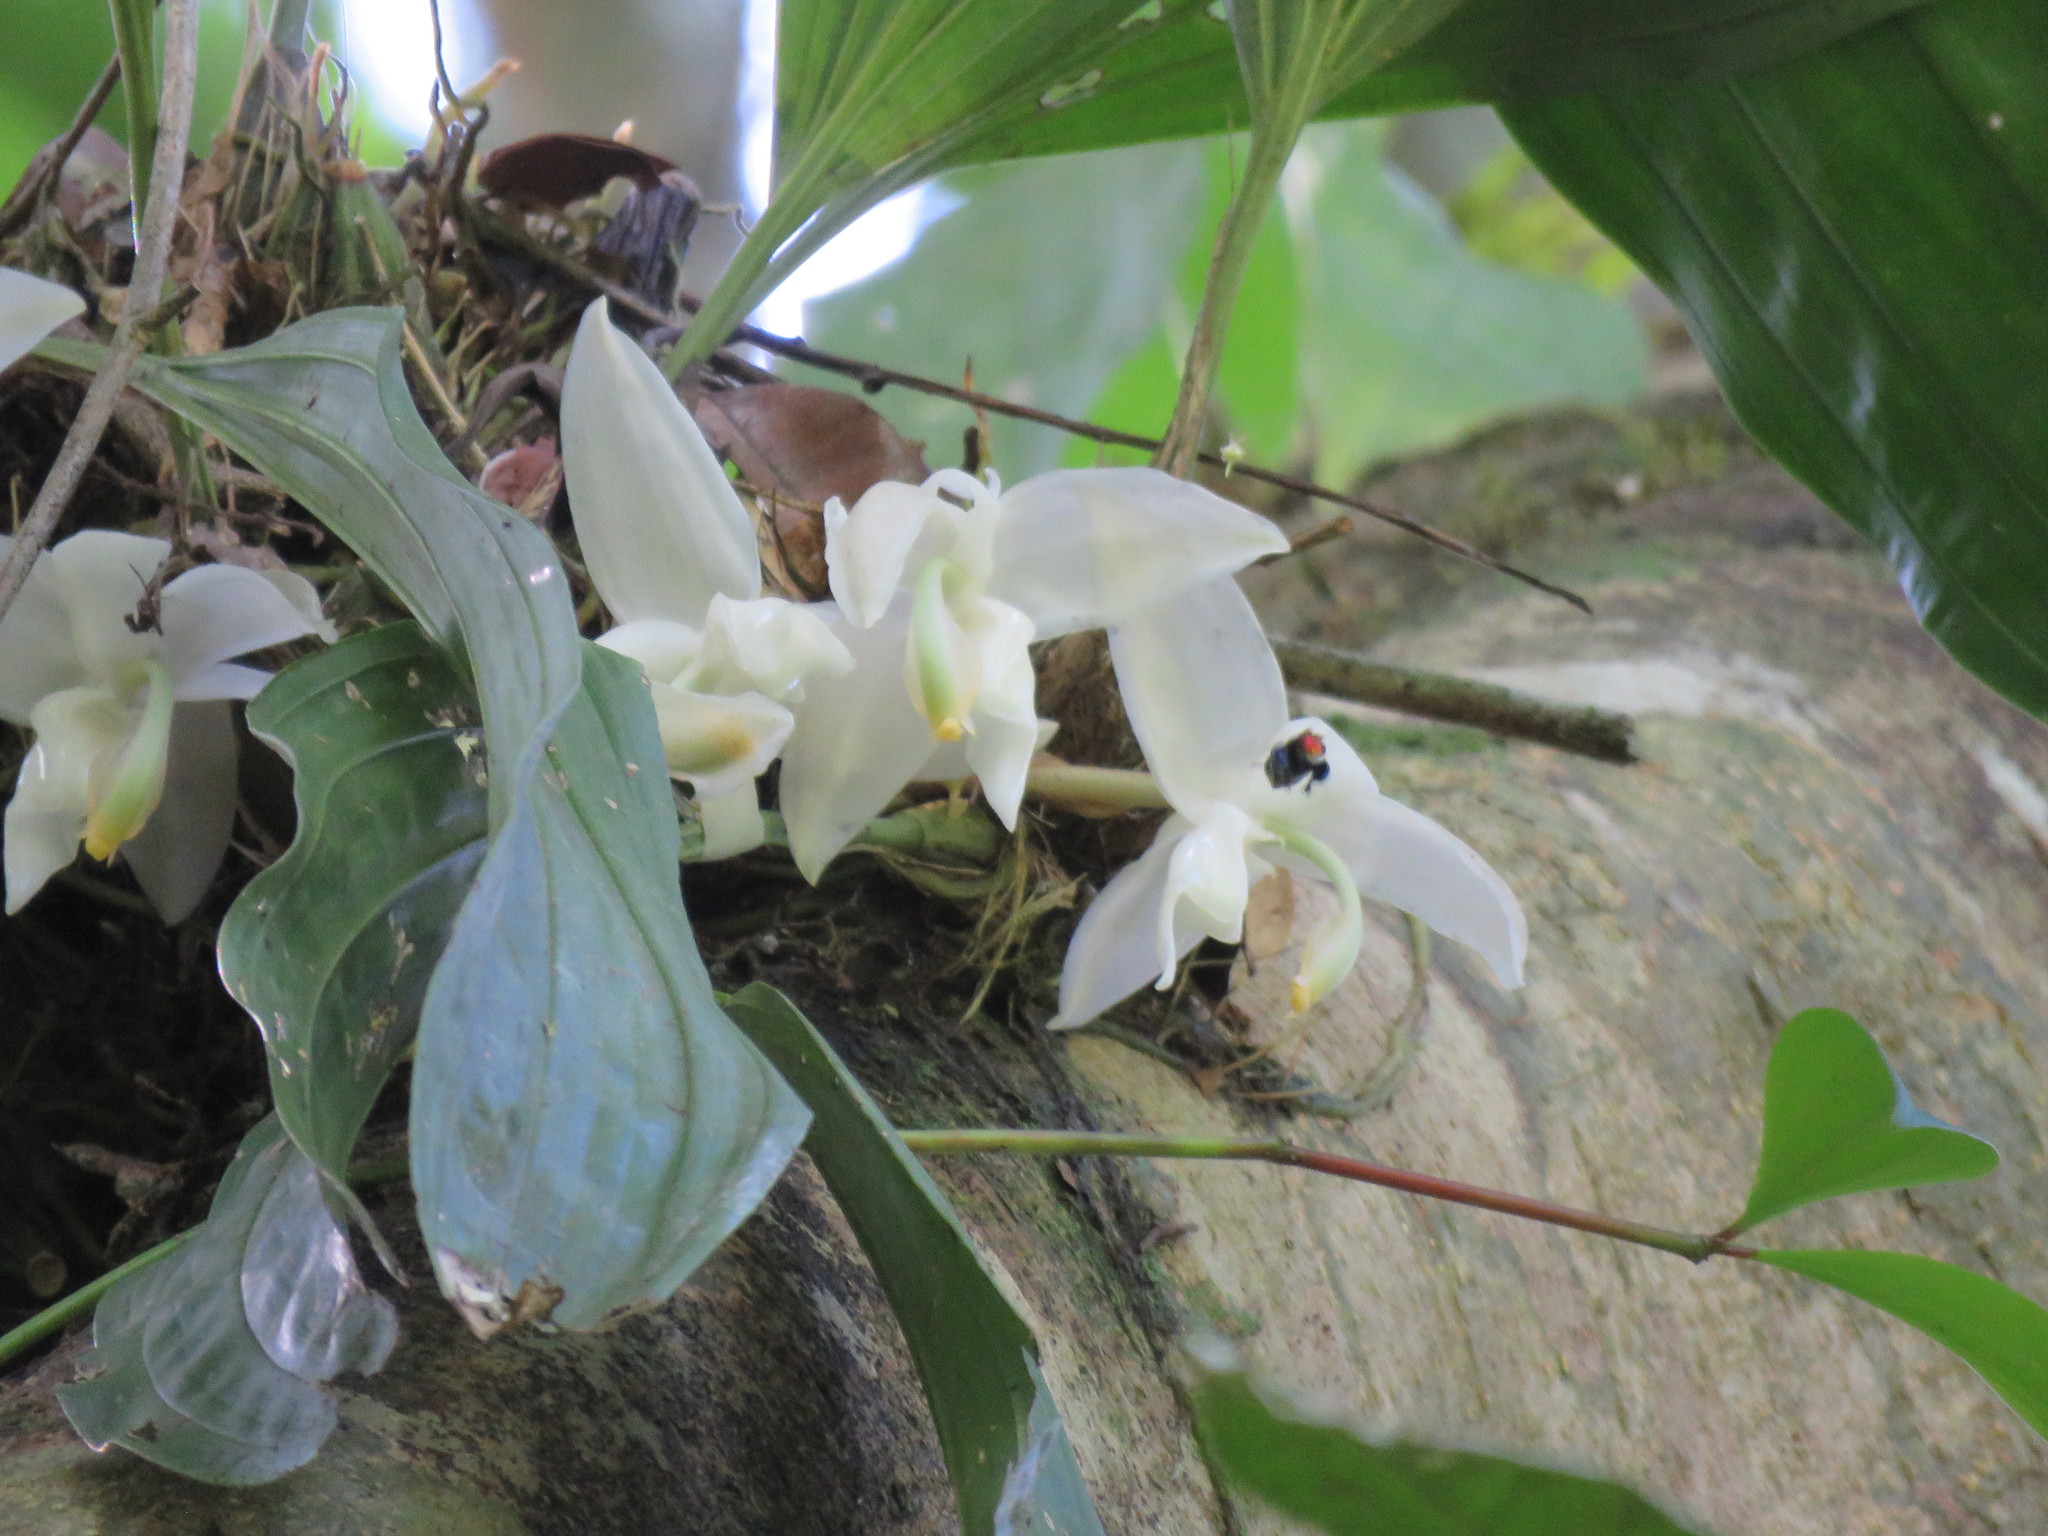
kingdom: Plantae
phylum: Tracheophyta
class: Liliopsida
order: Asparagales
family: Orchidaceae
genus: Stanhopea
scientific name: Stanhopea candida
